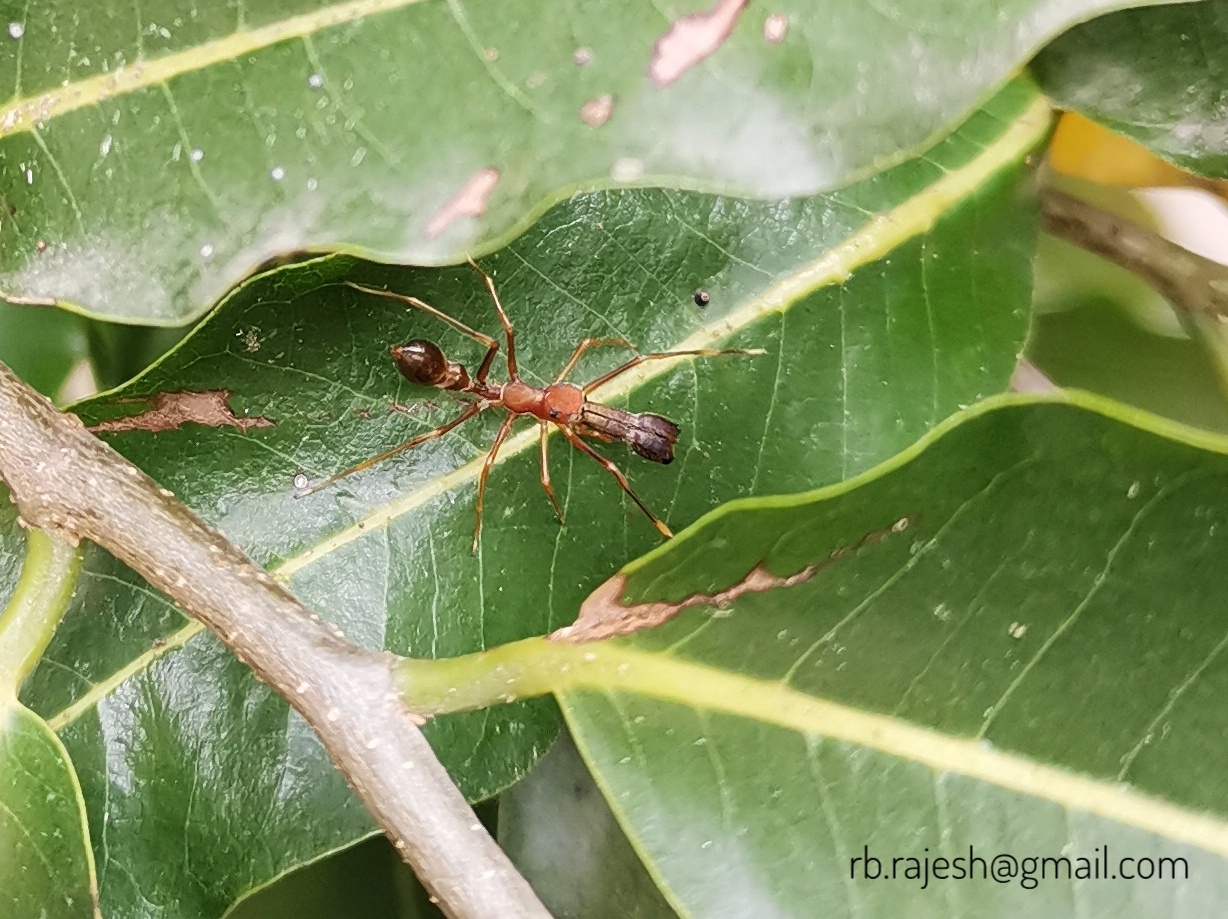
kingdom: Animalia
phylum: Arthropoda
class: Arachnida
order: Araneae
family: Salticidae
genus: Myrmaplata
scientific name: Myrmaplata plataleoides
